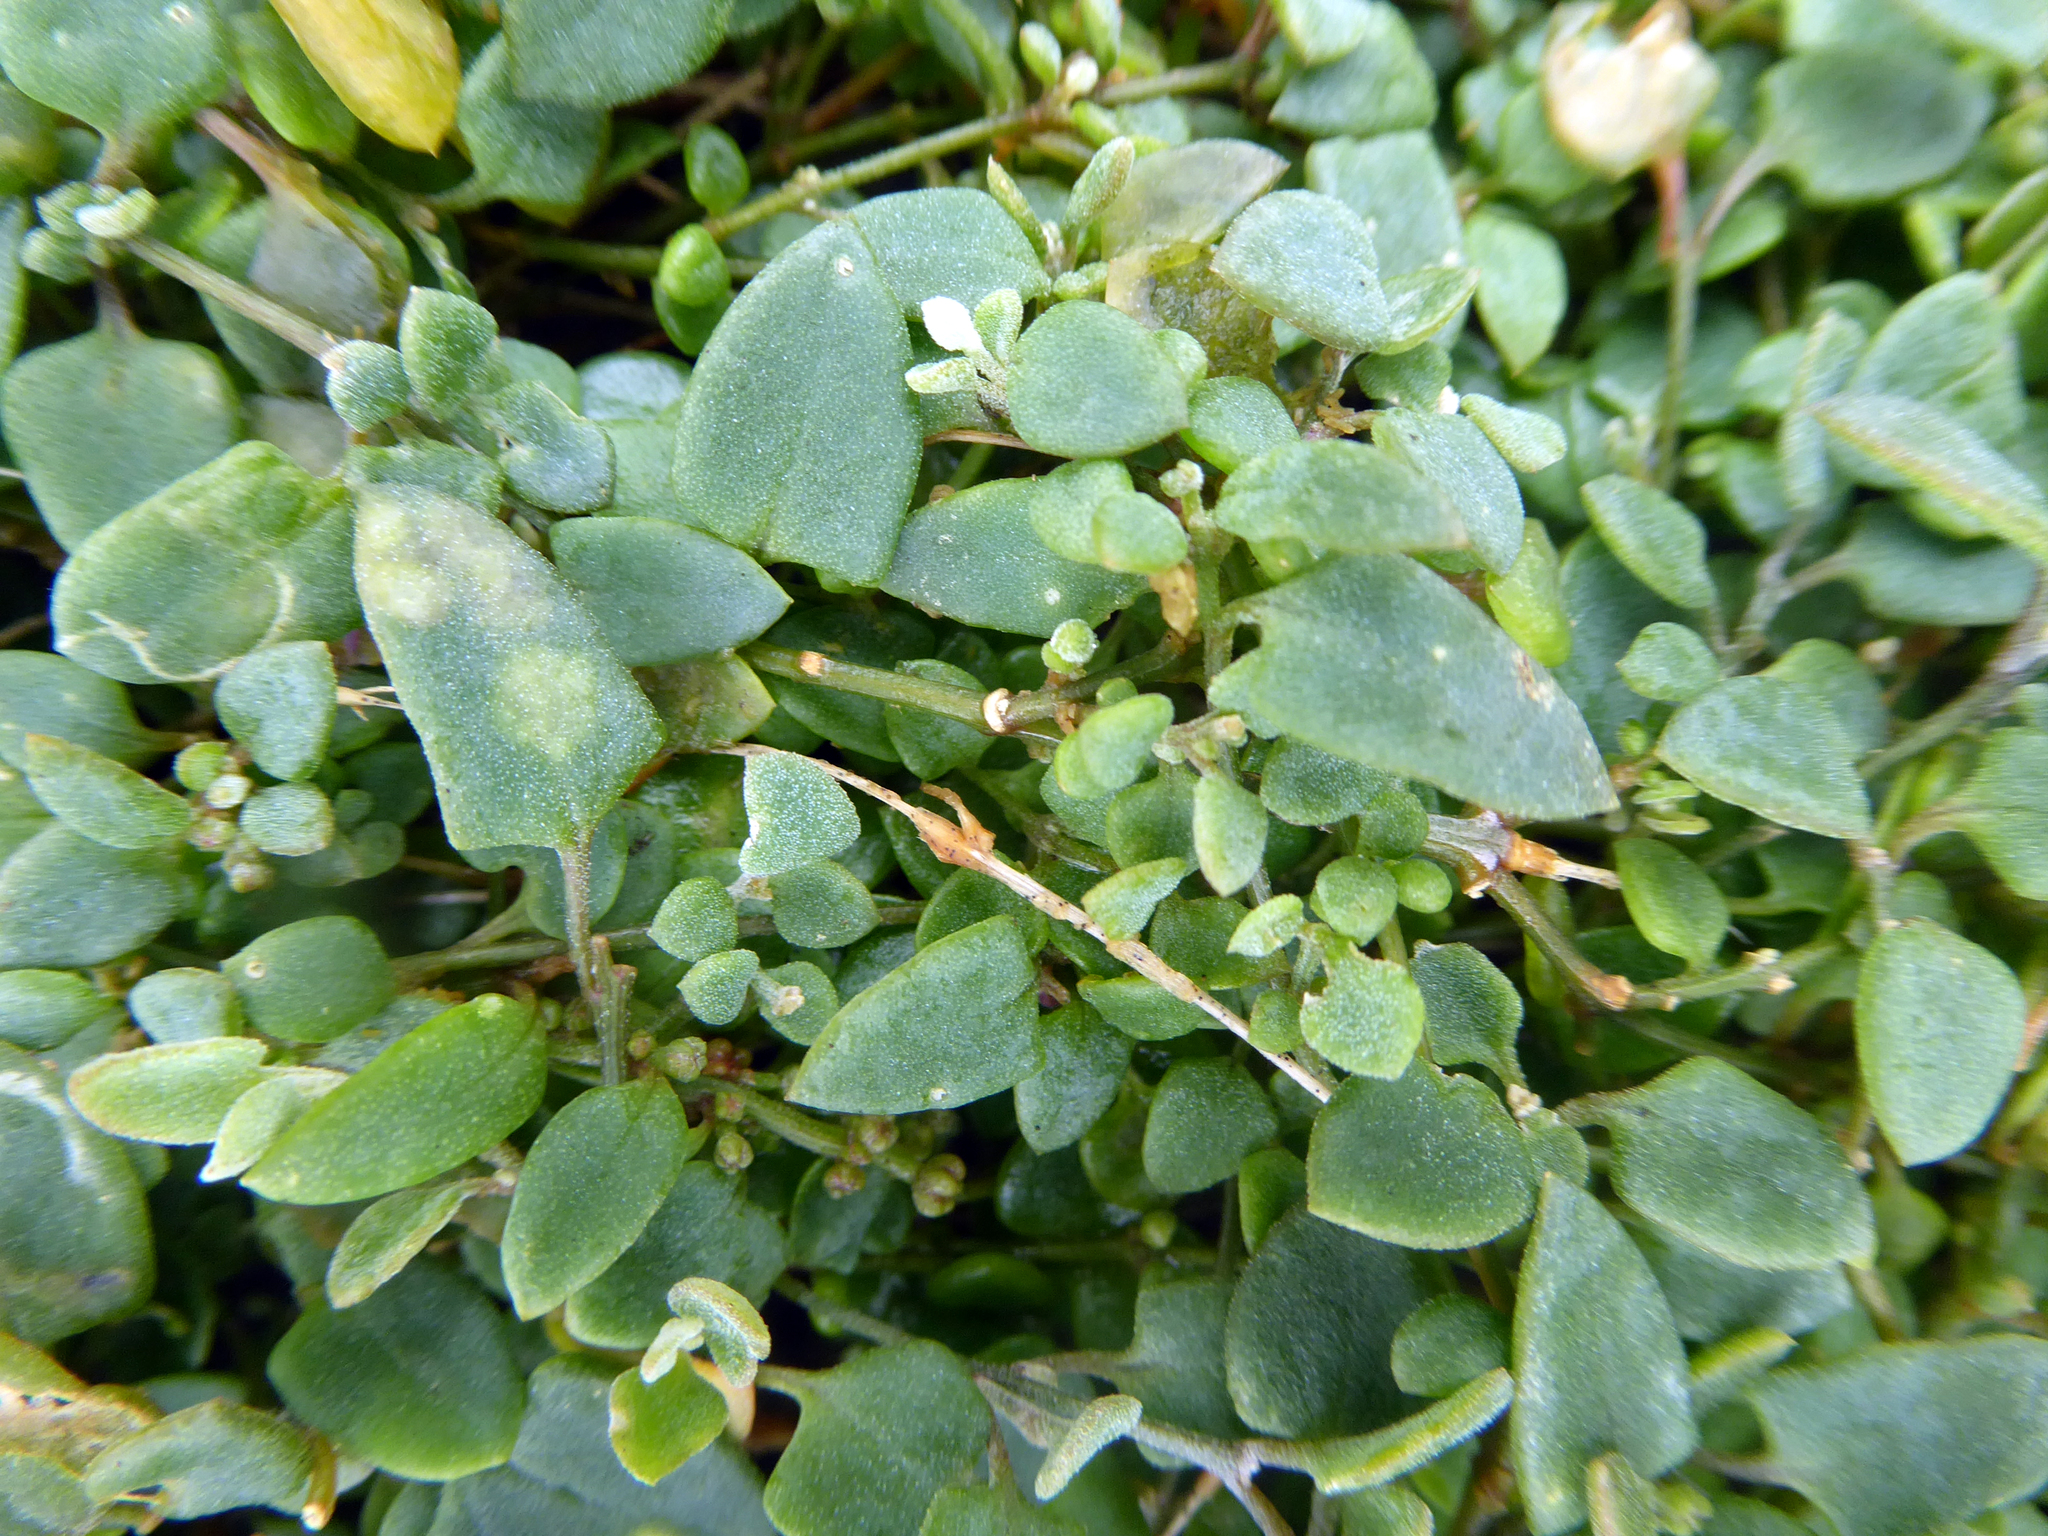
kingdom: Plantae
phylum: Tracheophyta
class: Magnoliopsida
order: Caryophyllales
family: Amaranthaceae
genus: Chenopodium
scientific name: Chenopodium triandrum
